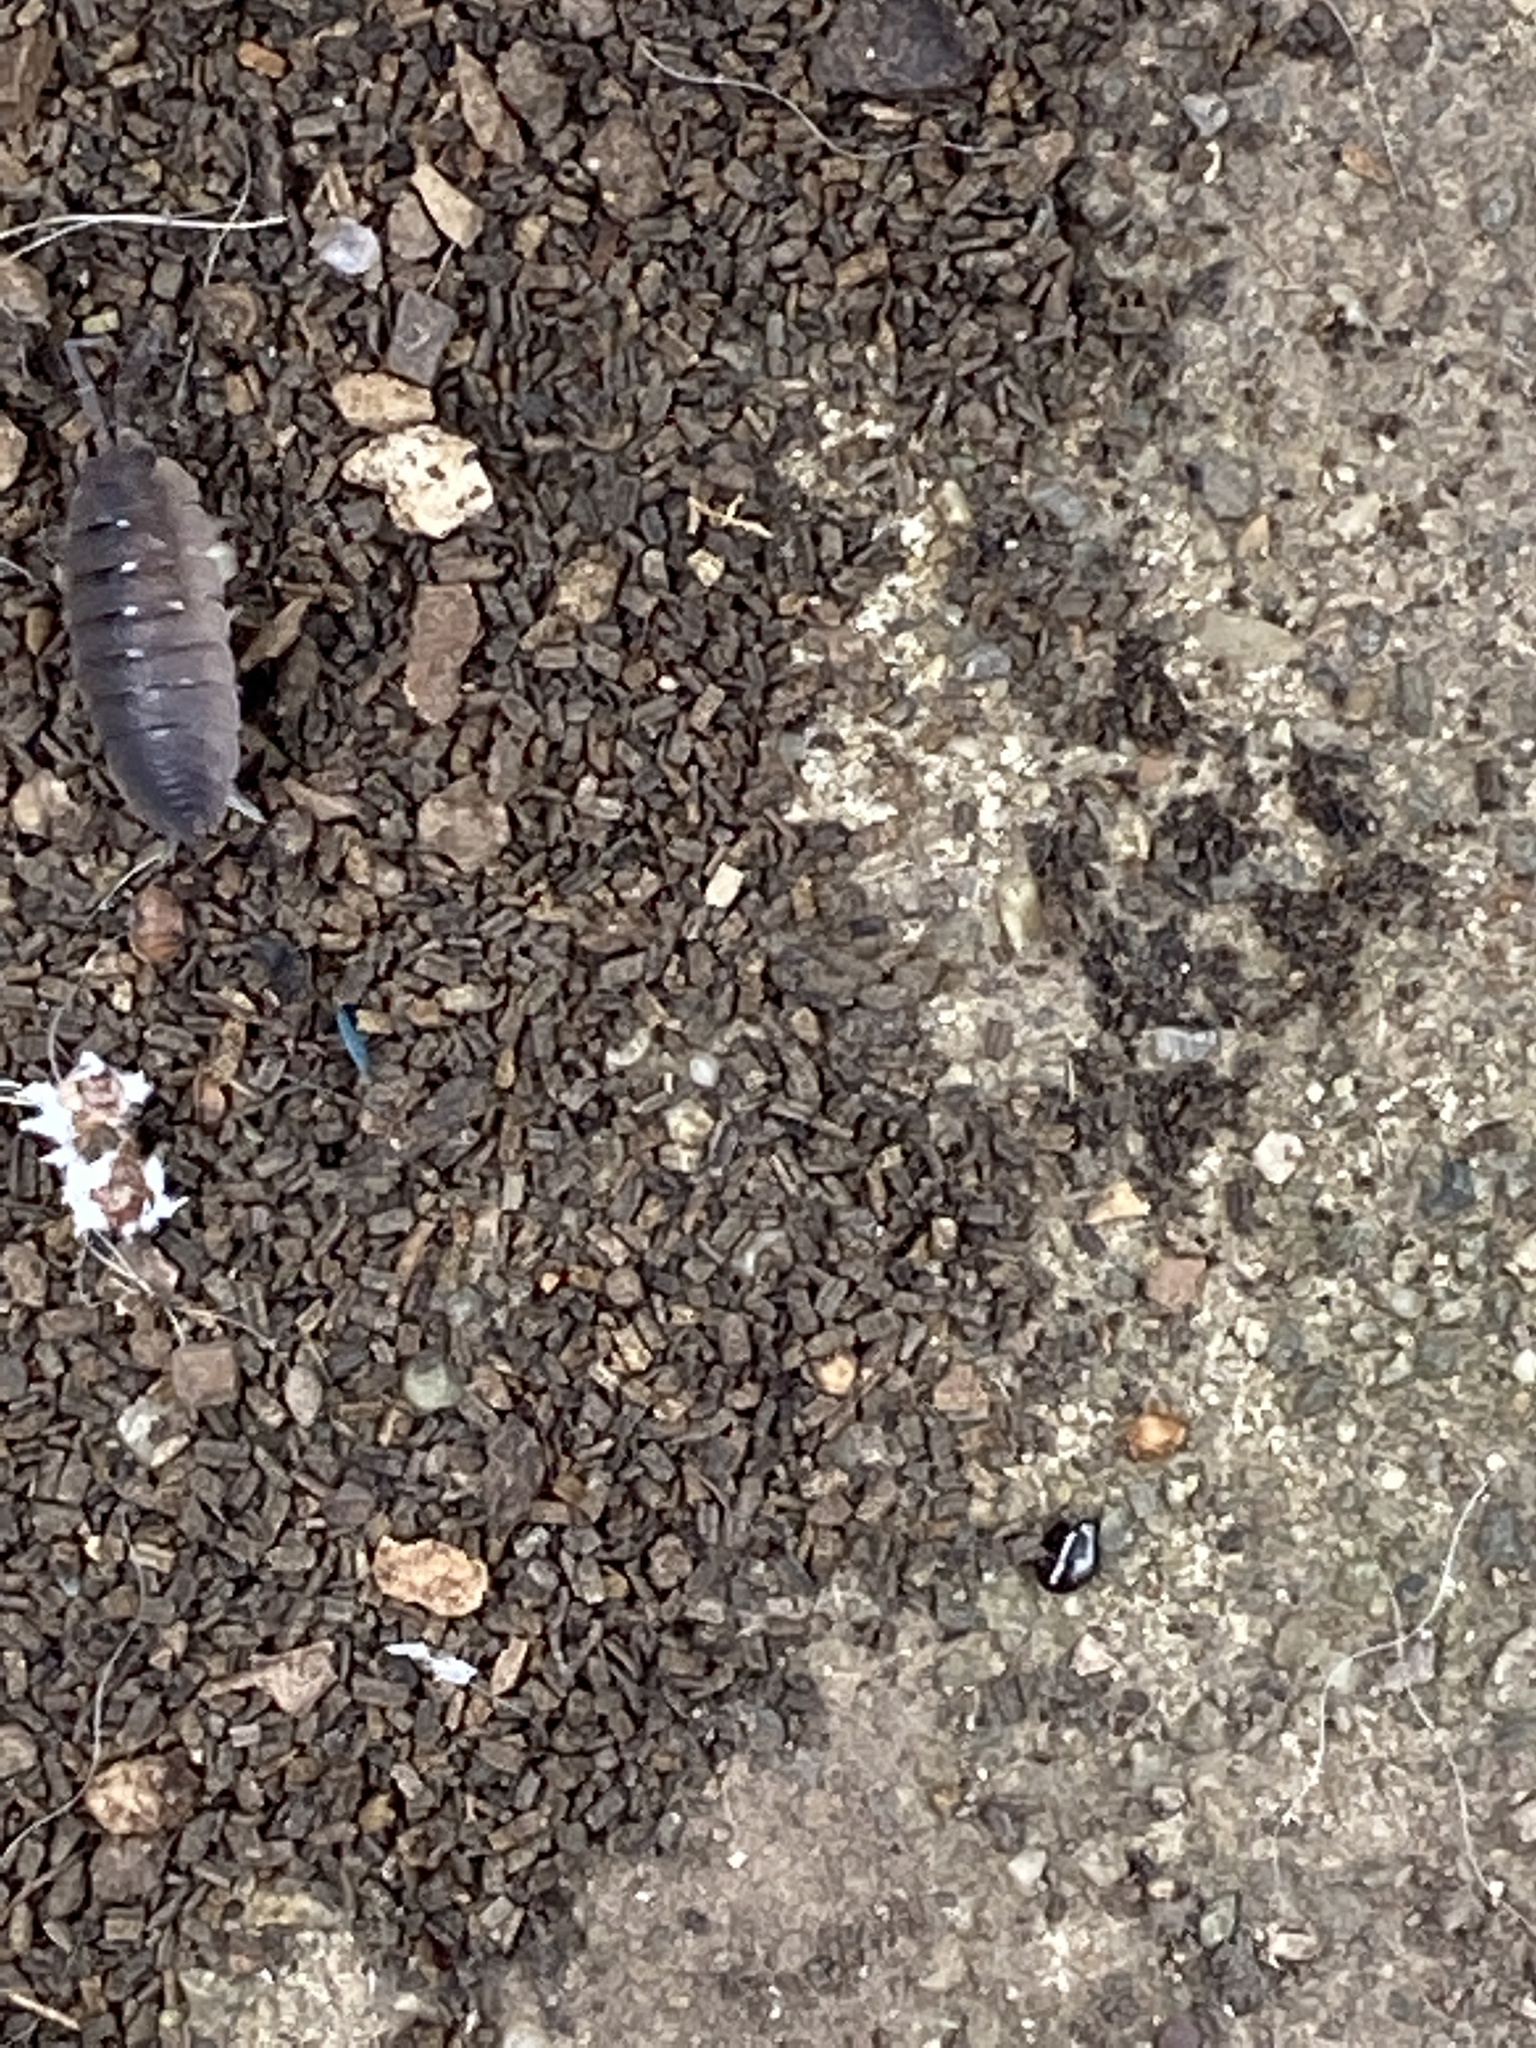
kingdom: Animalia
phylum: Arthropoda
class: Malacostraca
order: Isopoda
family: Porcellionidae
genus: Porcellio
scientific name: Porcellio scaber
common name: Common rough woodlouse
